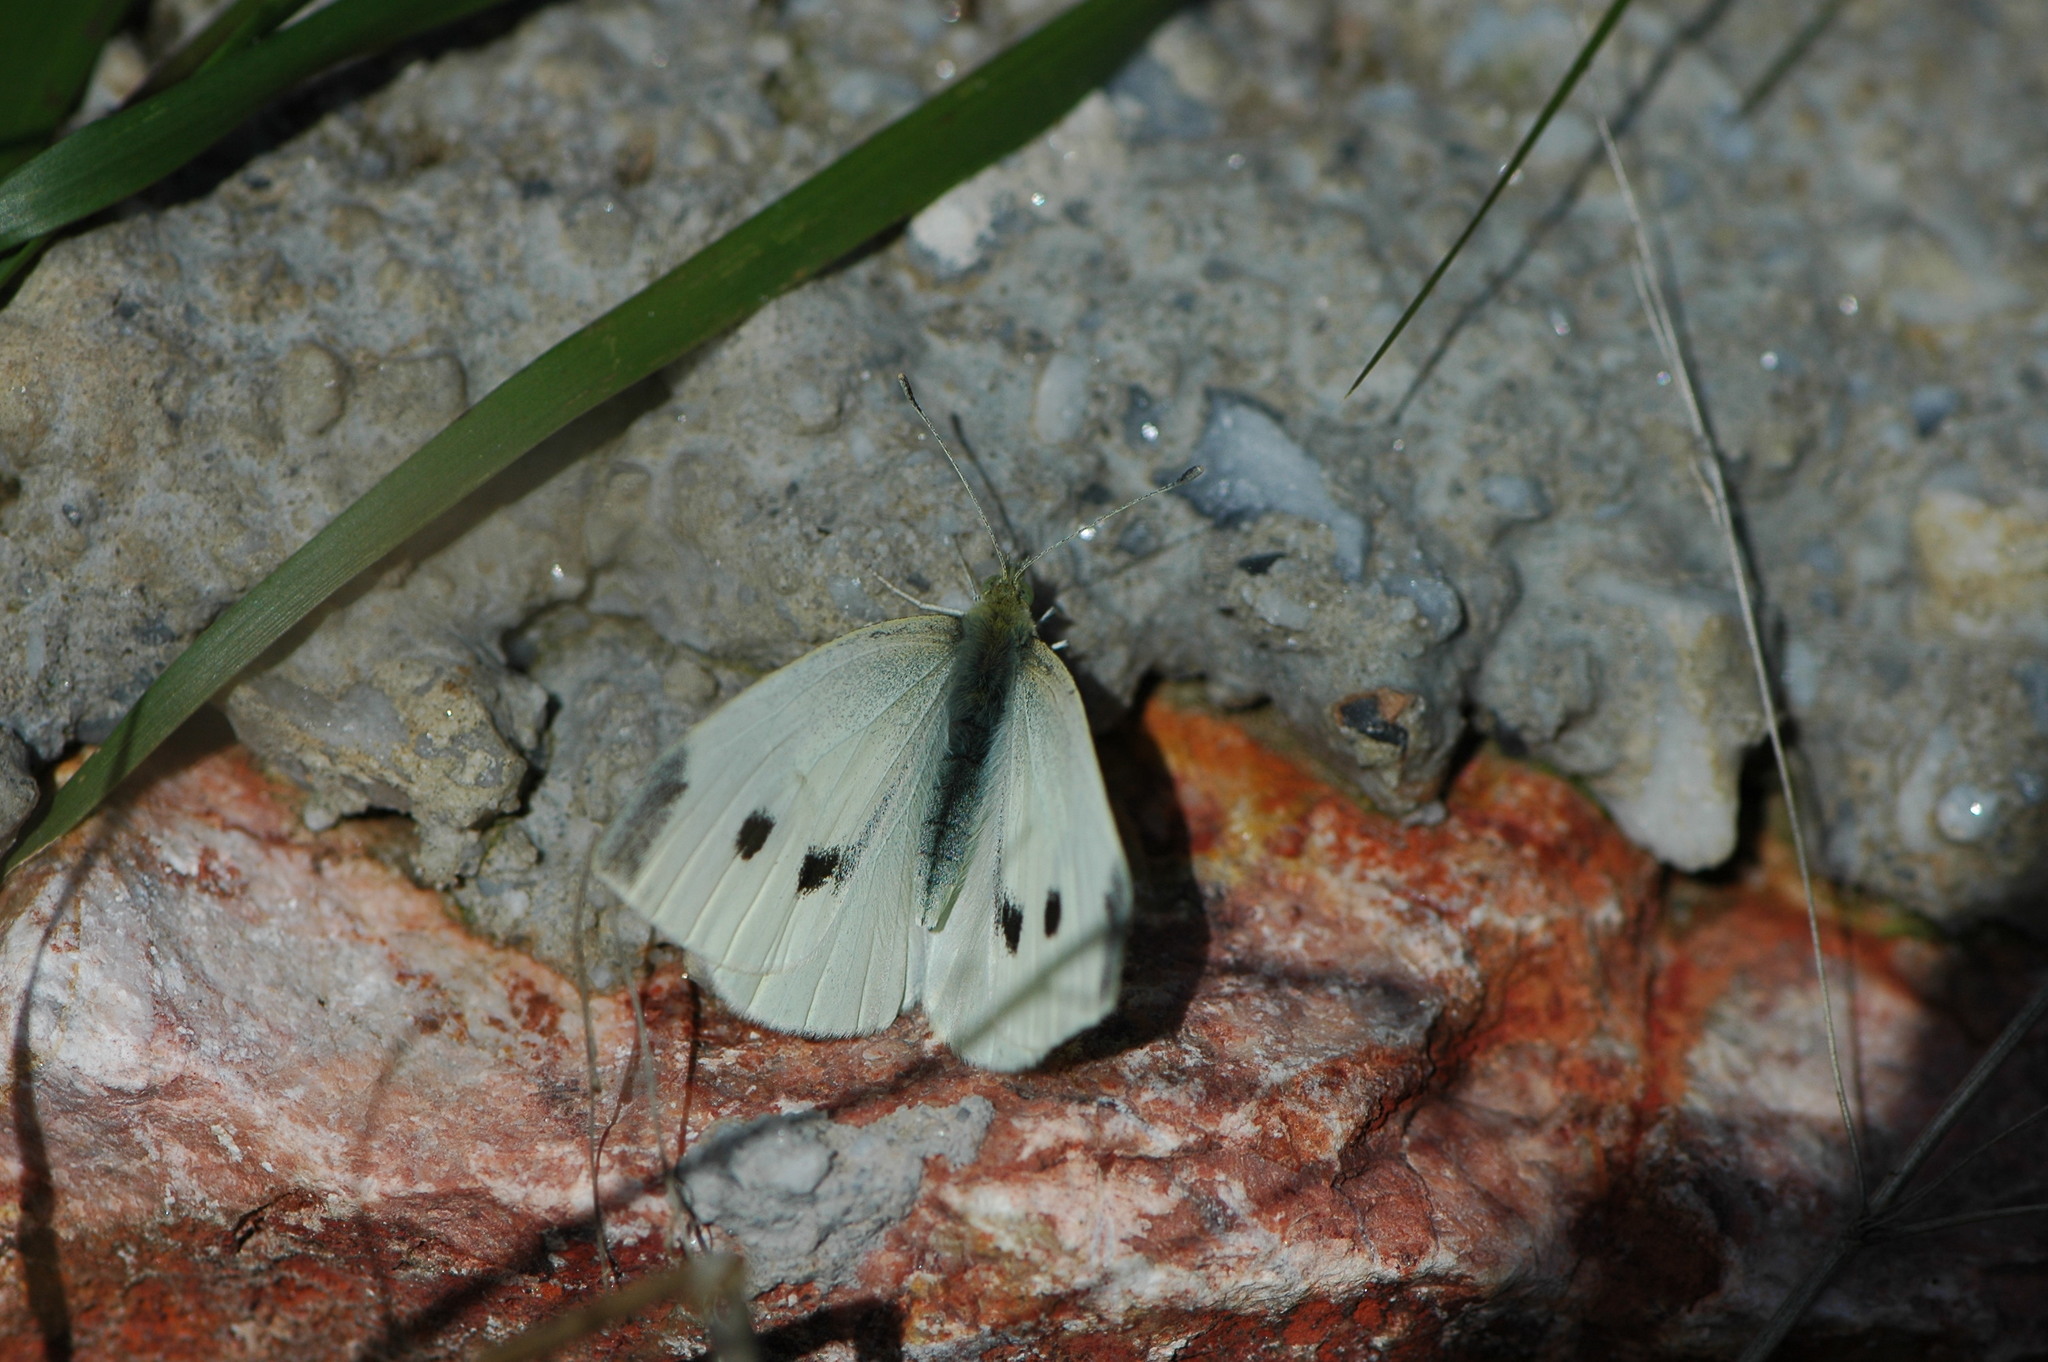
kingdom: Animalia
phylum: Arthropoda
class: Insecta
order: Lepidoptera
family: Pieridae
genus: Pieris
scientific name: Pieris rapae
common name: Small white
